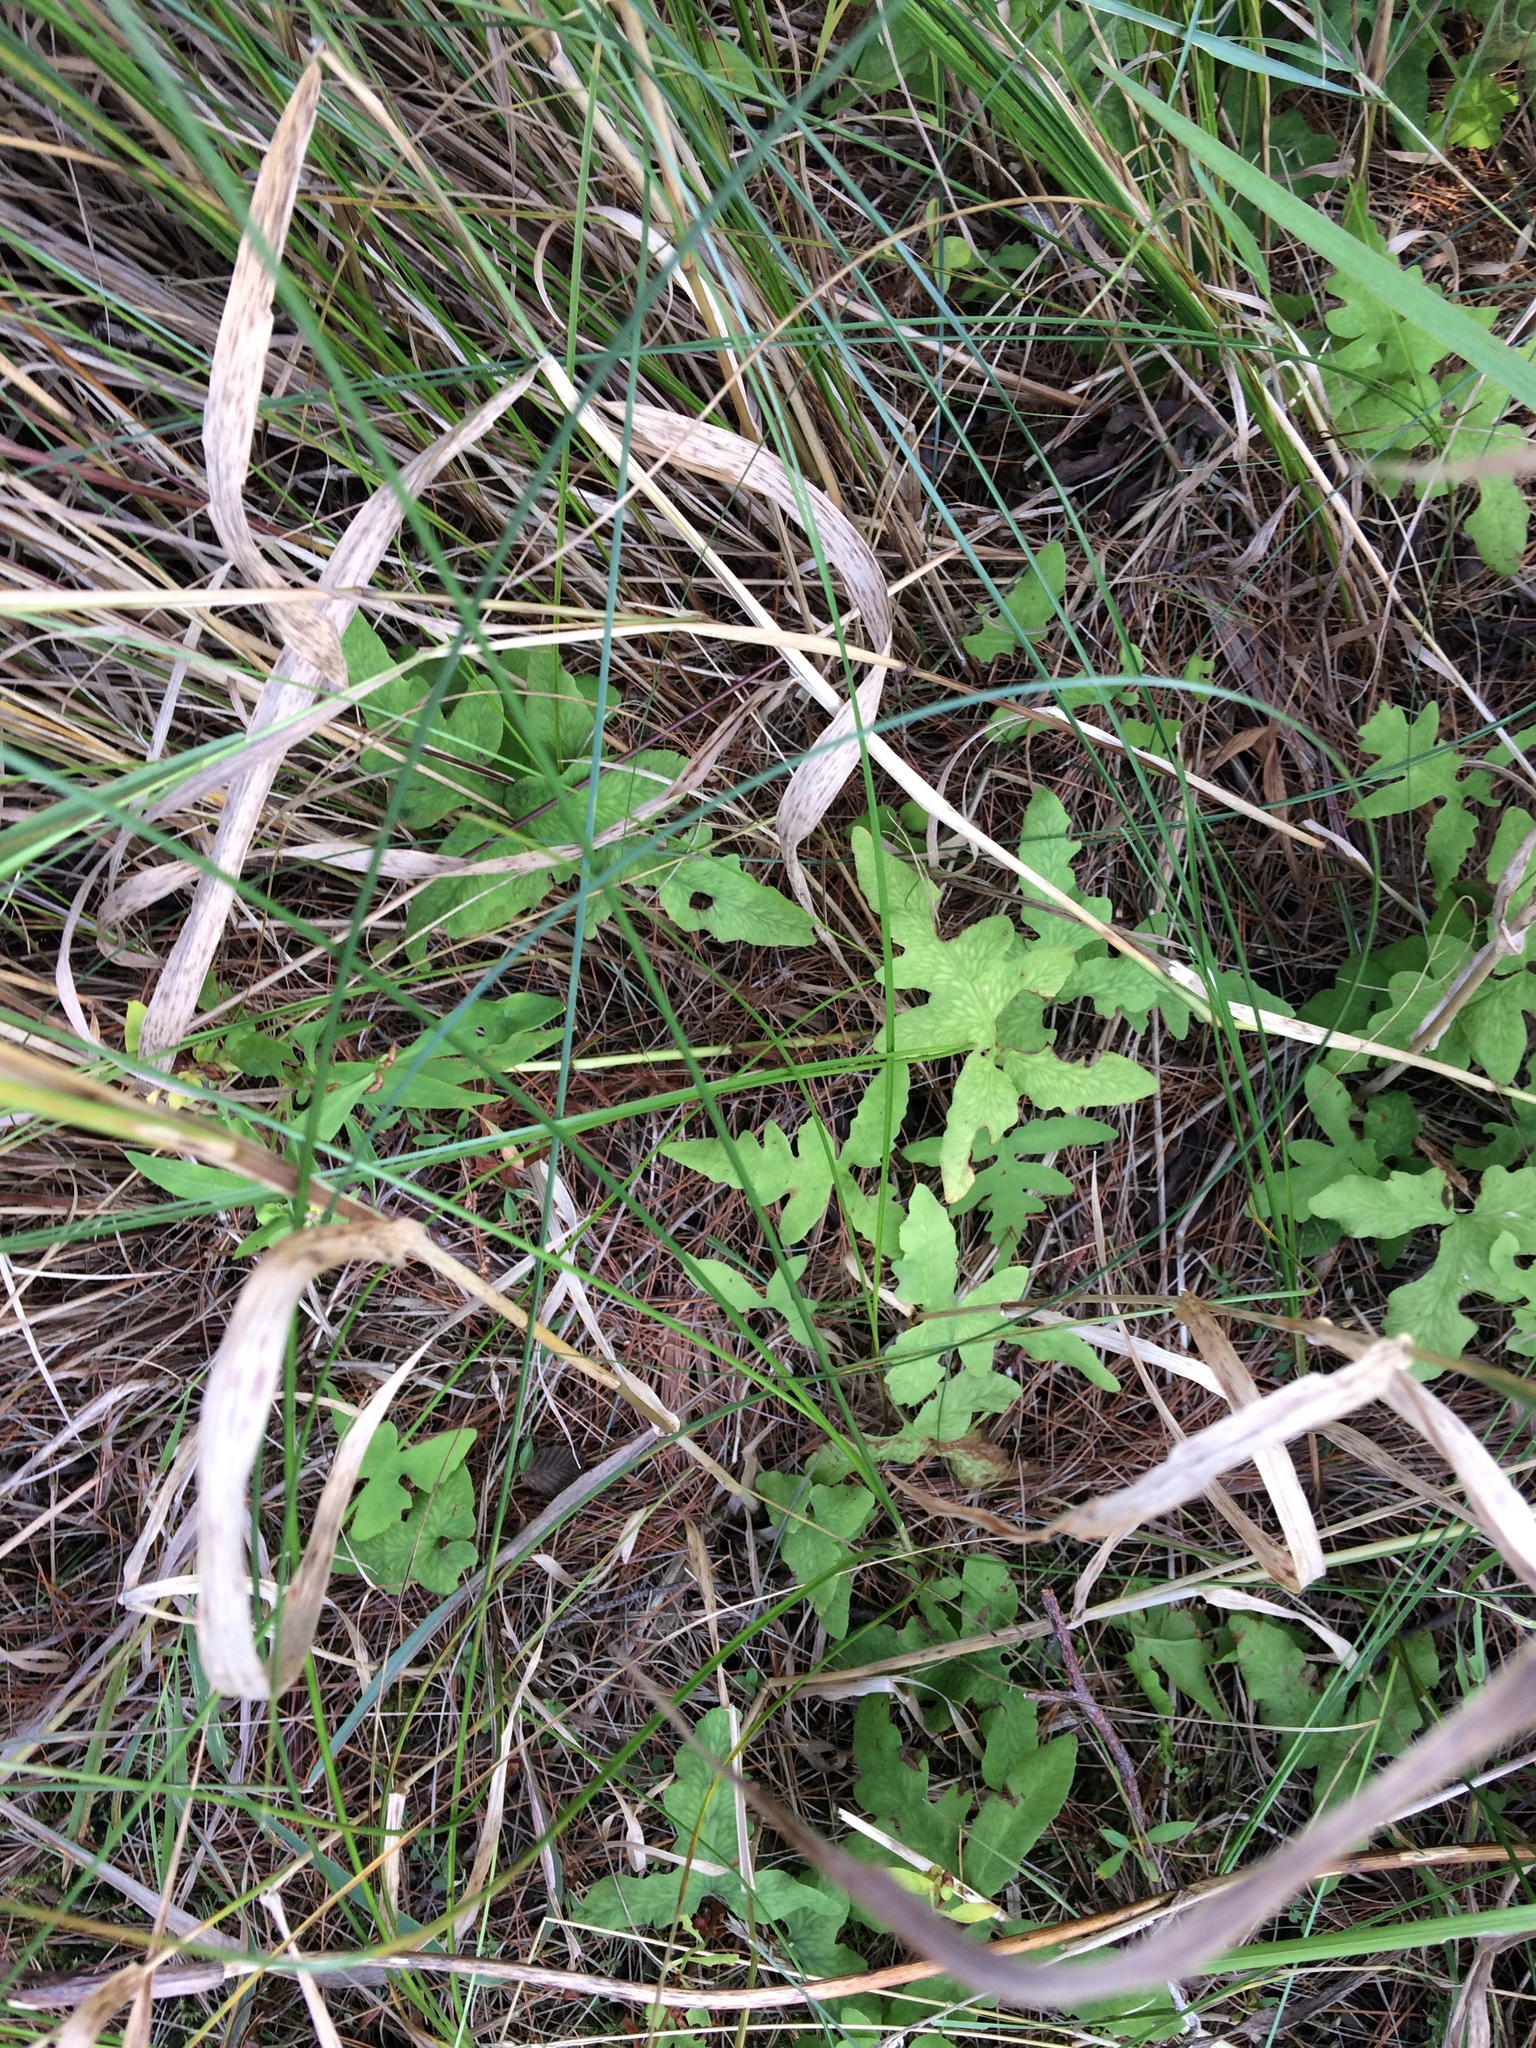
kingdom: Plantae
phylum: Tracheophyta
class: Polypodiopsida
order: Polypodiales
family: Onocleaceae
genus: Onoclea
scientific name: Onoclea sensibilis
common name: Sensitive fern
